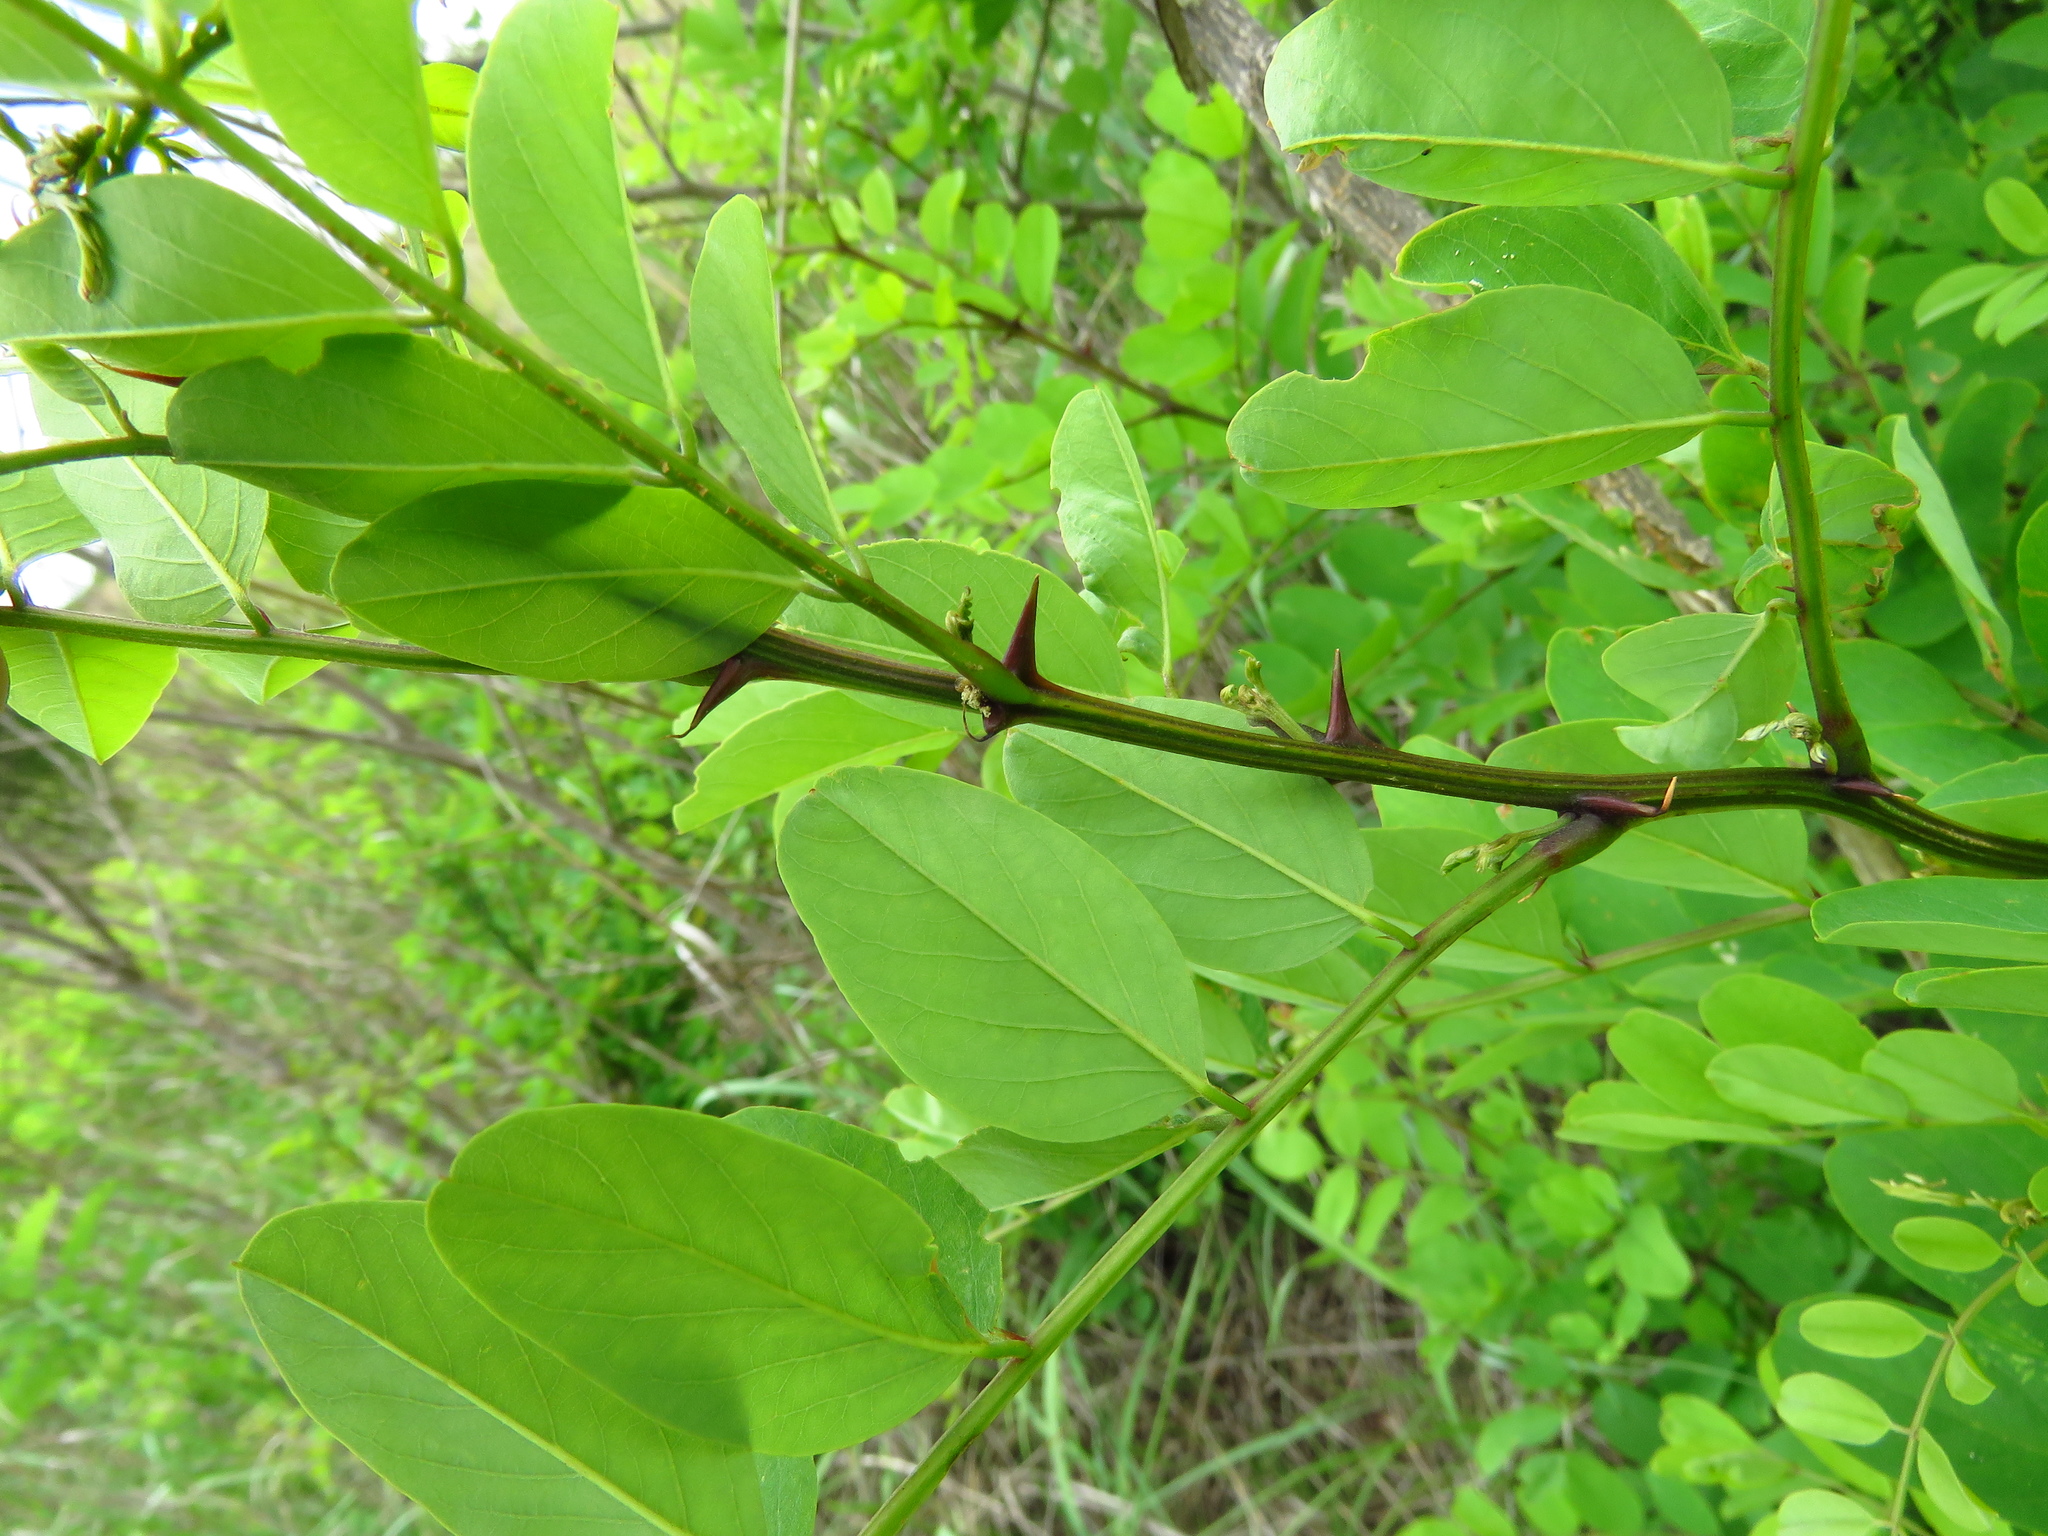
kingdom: Plantae
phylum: Tracheophyta
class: Magnoliopsida
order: Fabales
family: Fabaceae
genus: Robinia
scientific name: Robinia pseudoacacia
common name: Black locust
